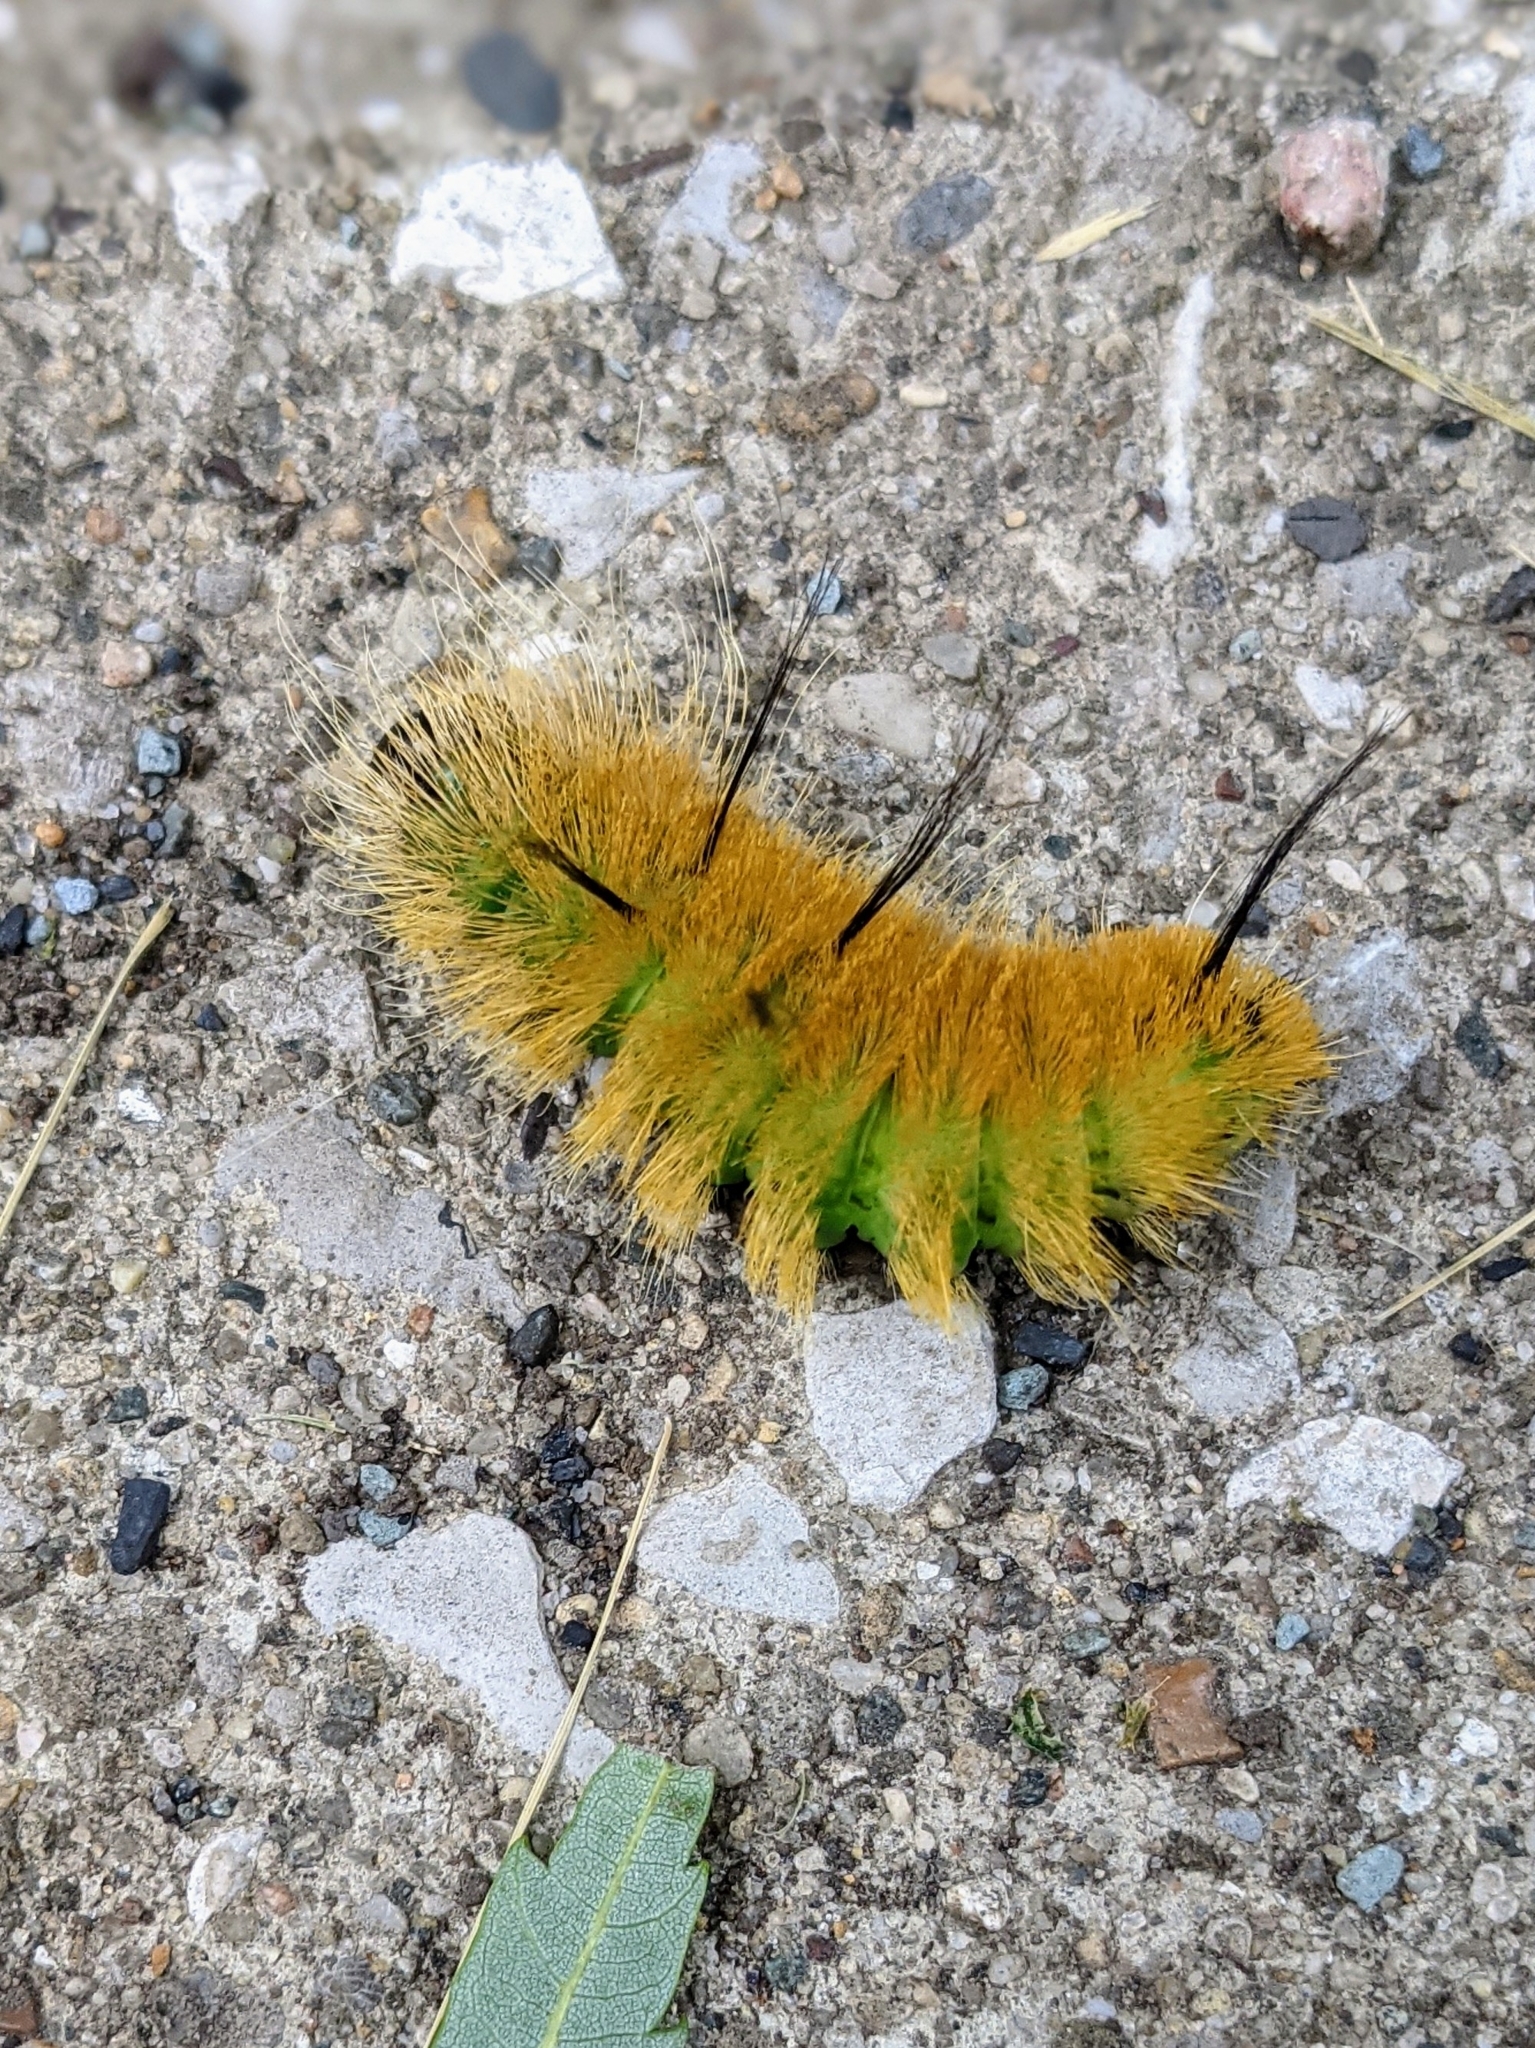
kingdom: Animalia
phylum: Arthropoda
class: Insecta
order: Lepidoptera
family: Noctuidae
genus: Acronicta
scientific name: Acronicta americana
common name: American dagger
